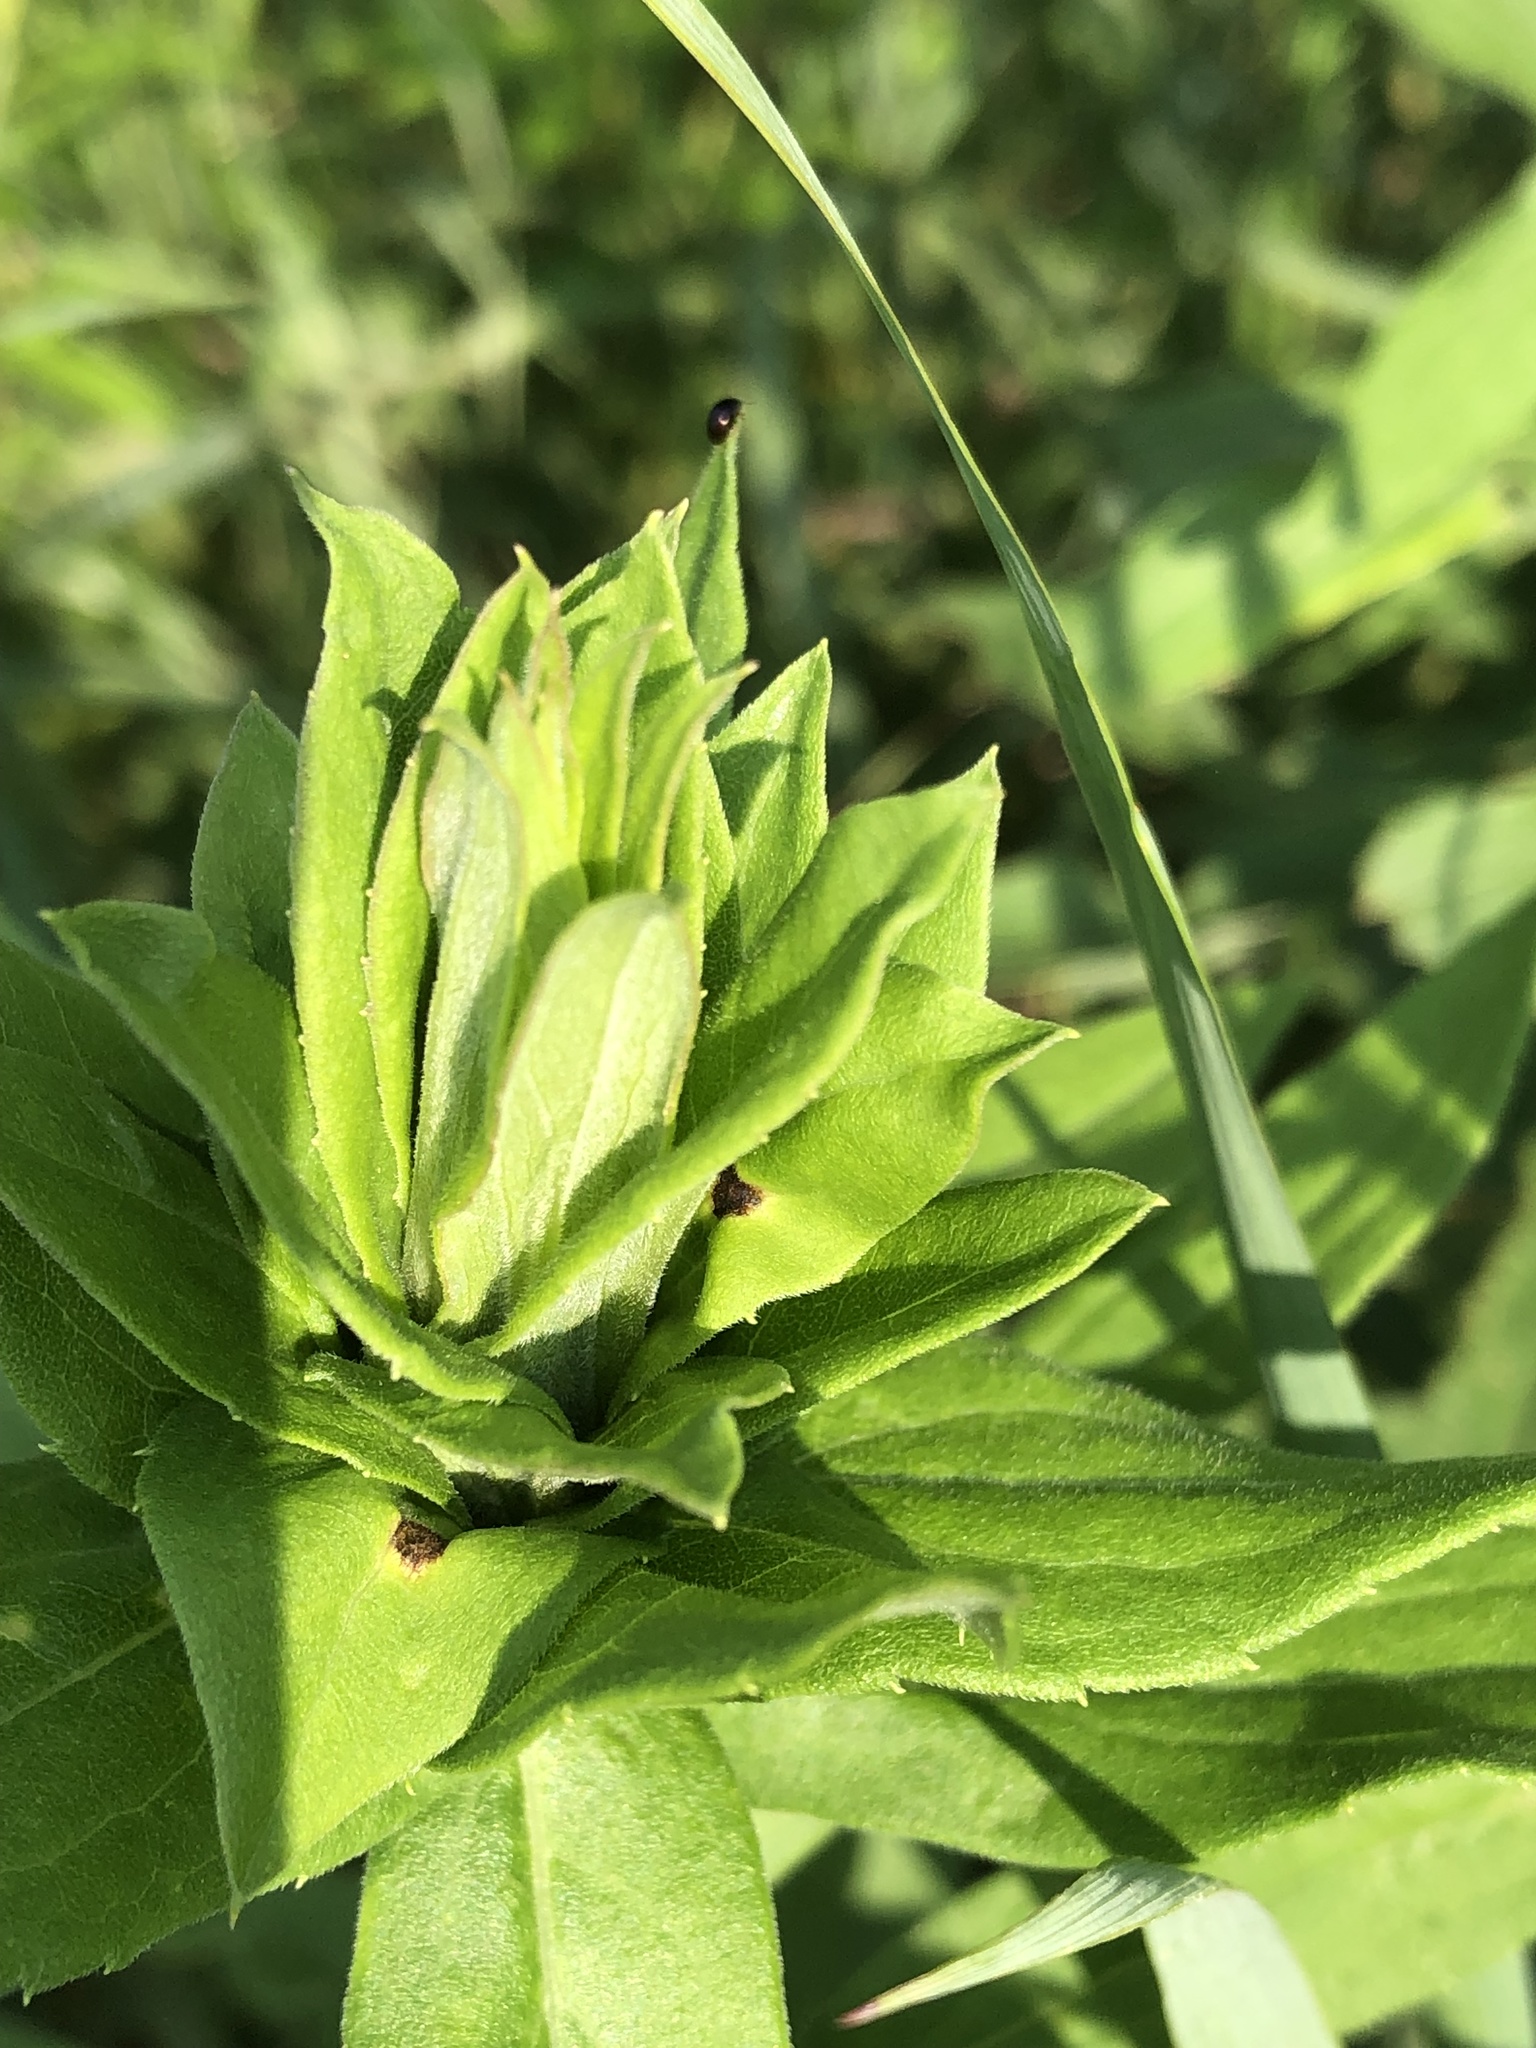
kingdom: Animalia
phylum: Arthropoda
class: Insecta
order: Diptera
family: Cecidomyiidae
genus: Rhopalomyia
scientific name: Rhopalomyia solidaginis
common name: Goldenrod bunch gall midge
